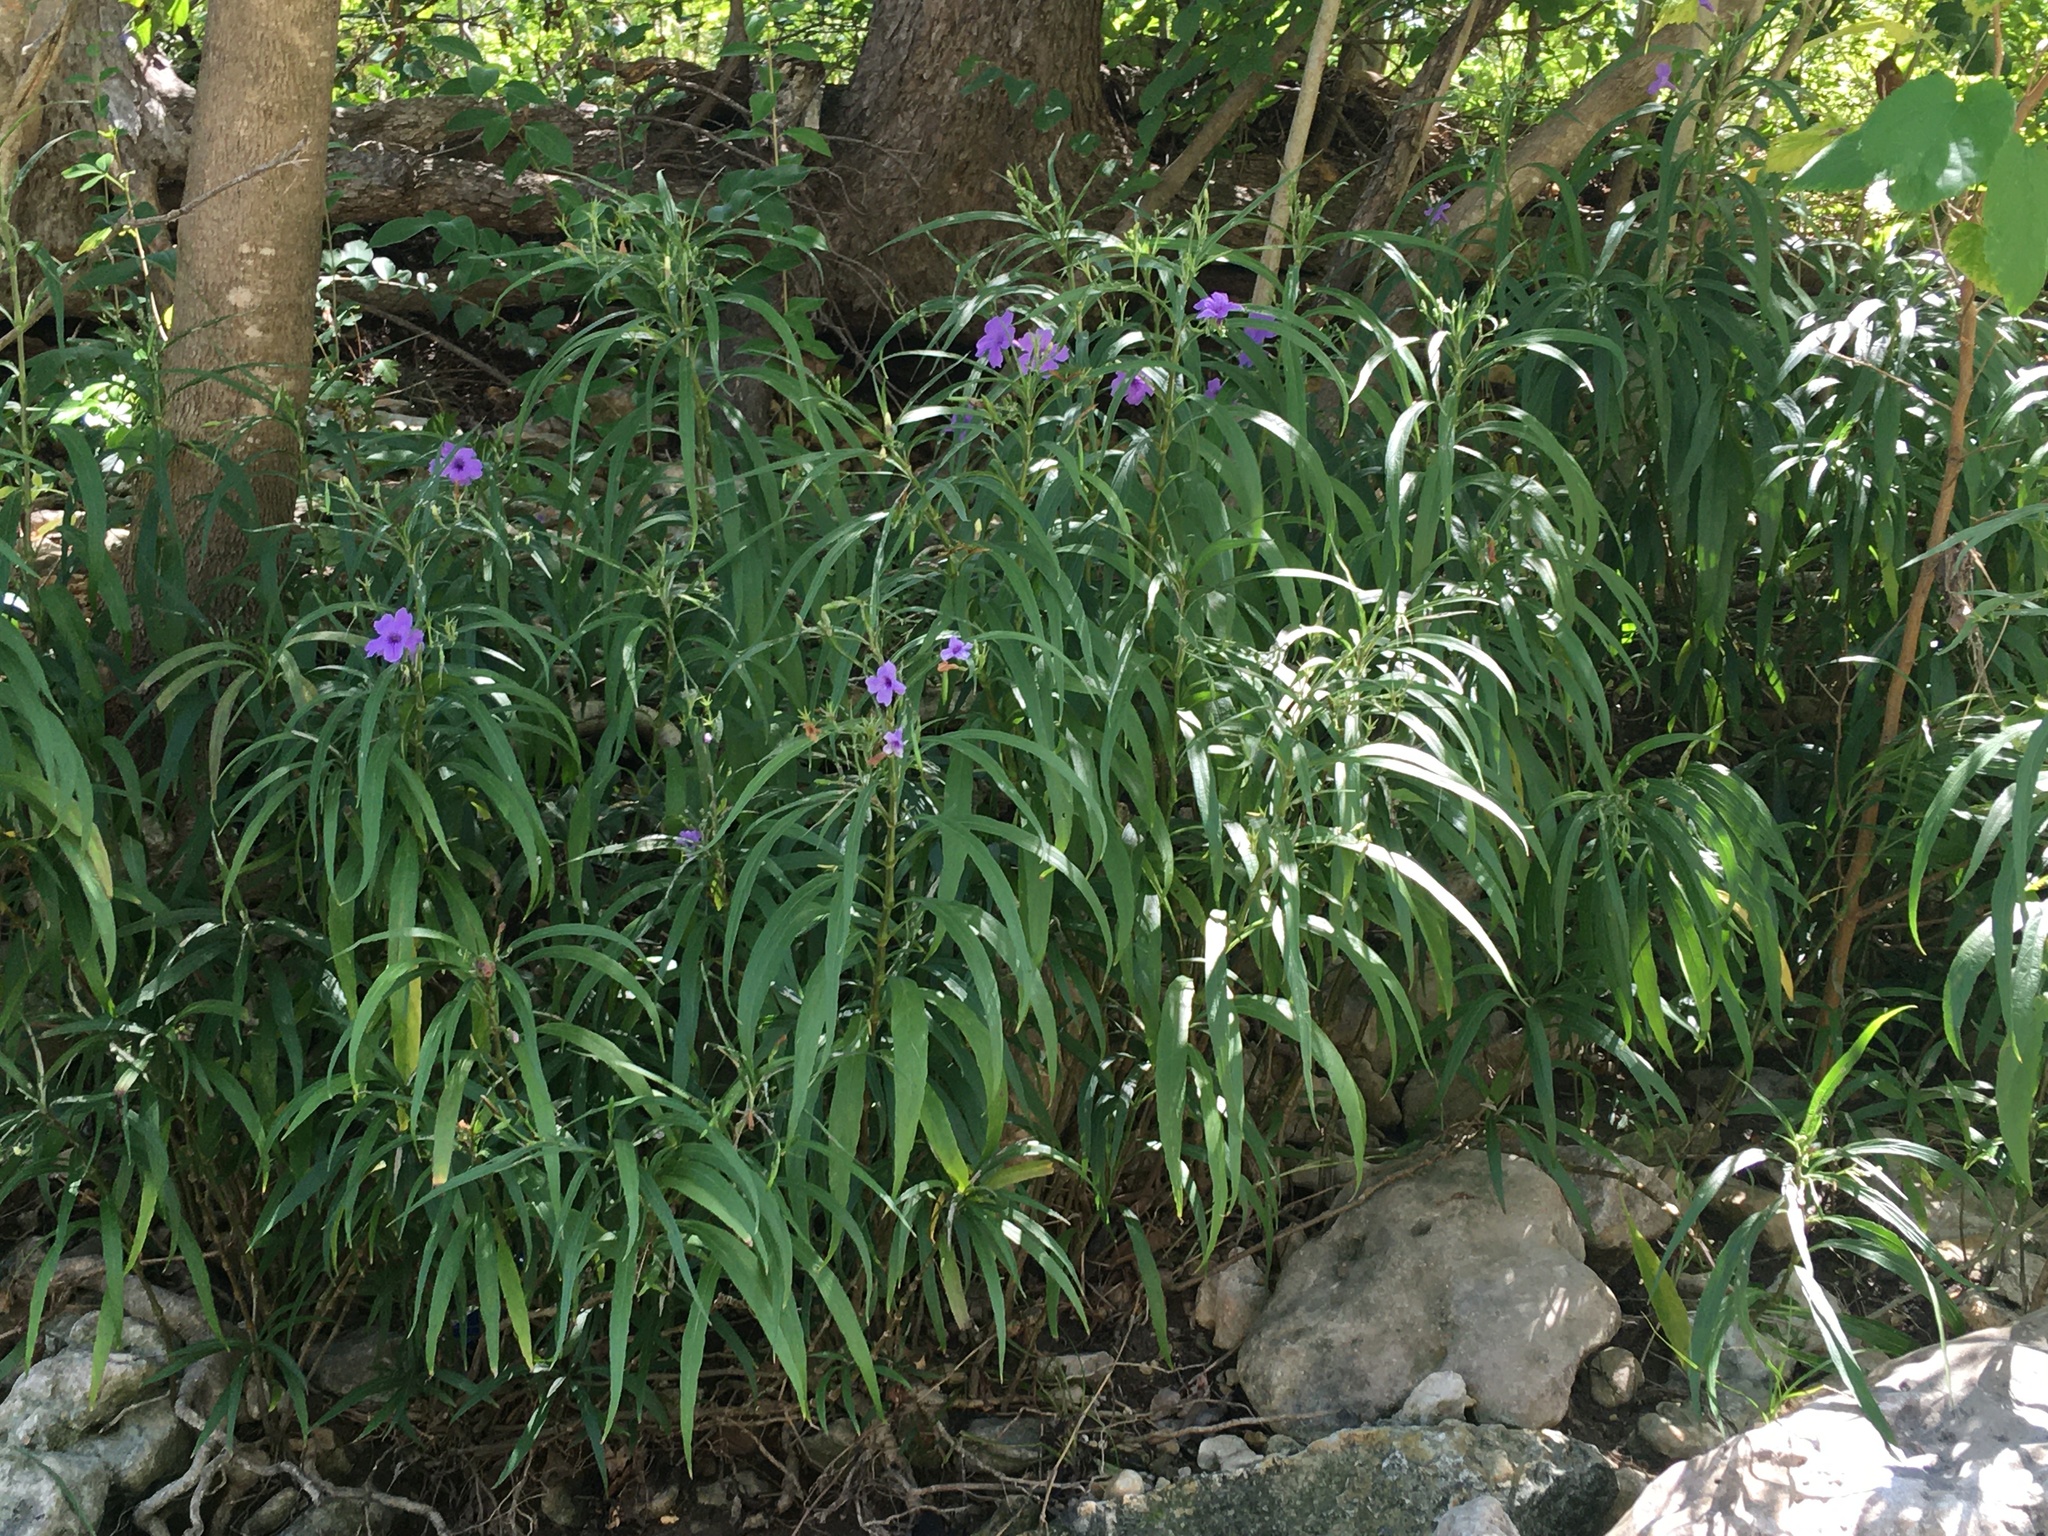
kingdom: Plantae
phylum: Tracheophyta
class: Magnoliopsida
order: Lamiales
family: Acanthaceae
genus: Ruellia
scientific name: Ruellia simplex
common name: Softseed wild petunia
